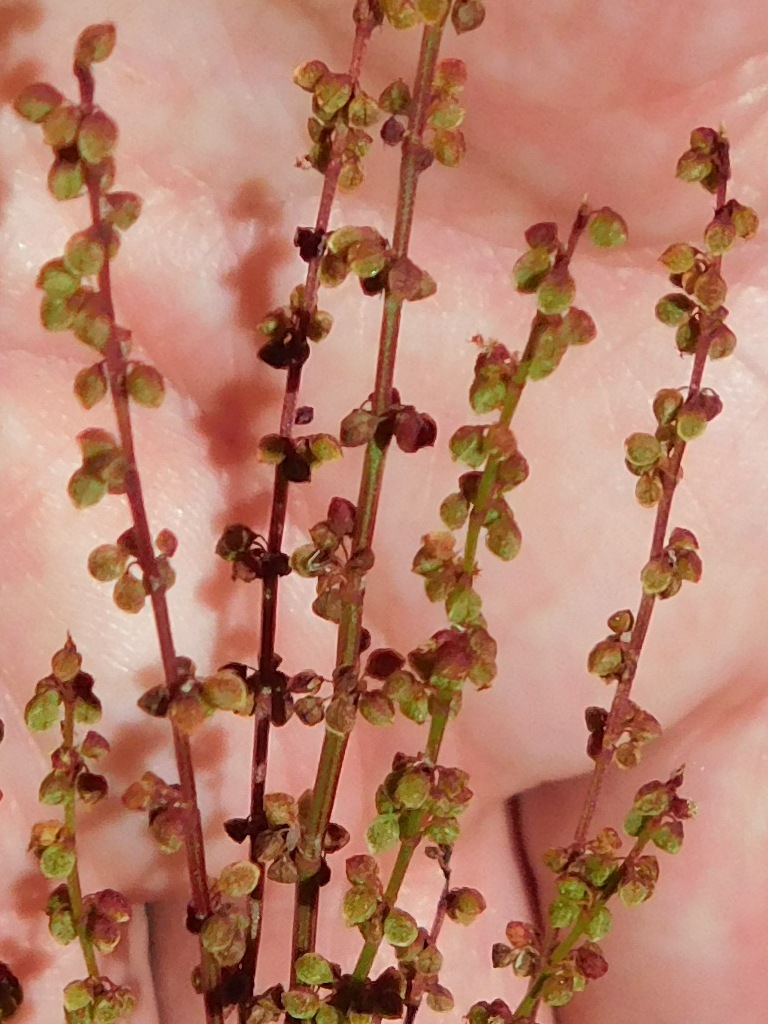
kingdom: Plantae
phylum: Tracheophyta
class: Magnoliopsida
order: Caryophyllales
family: Polygonaceae
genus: Rumex
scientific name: Rumex acetosella
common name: Common sheep sorrel
